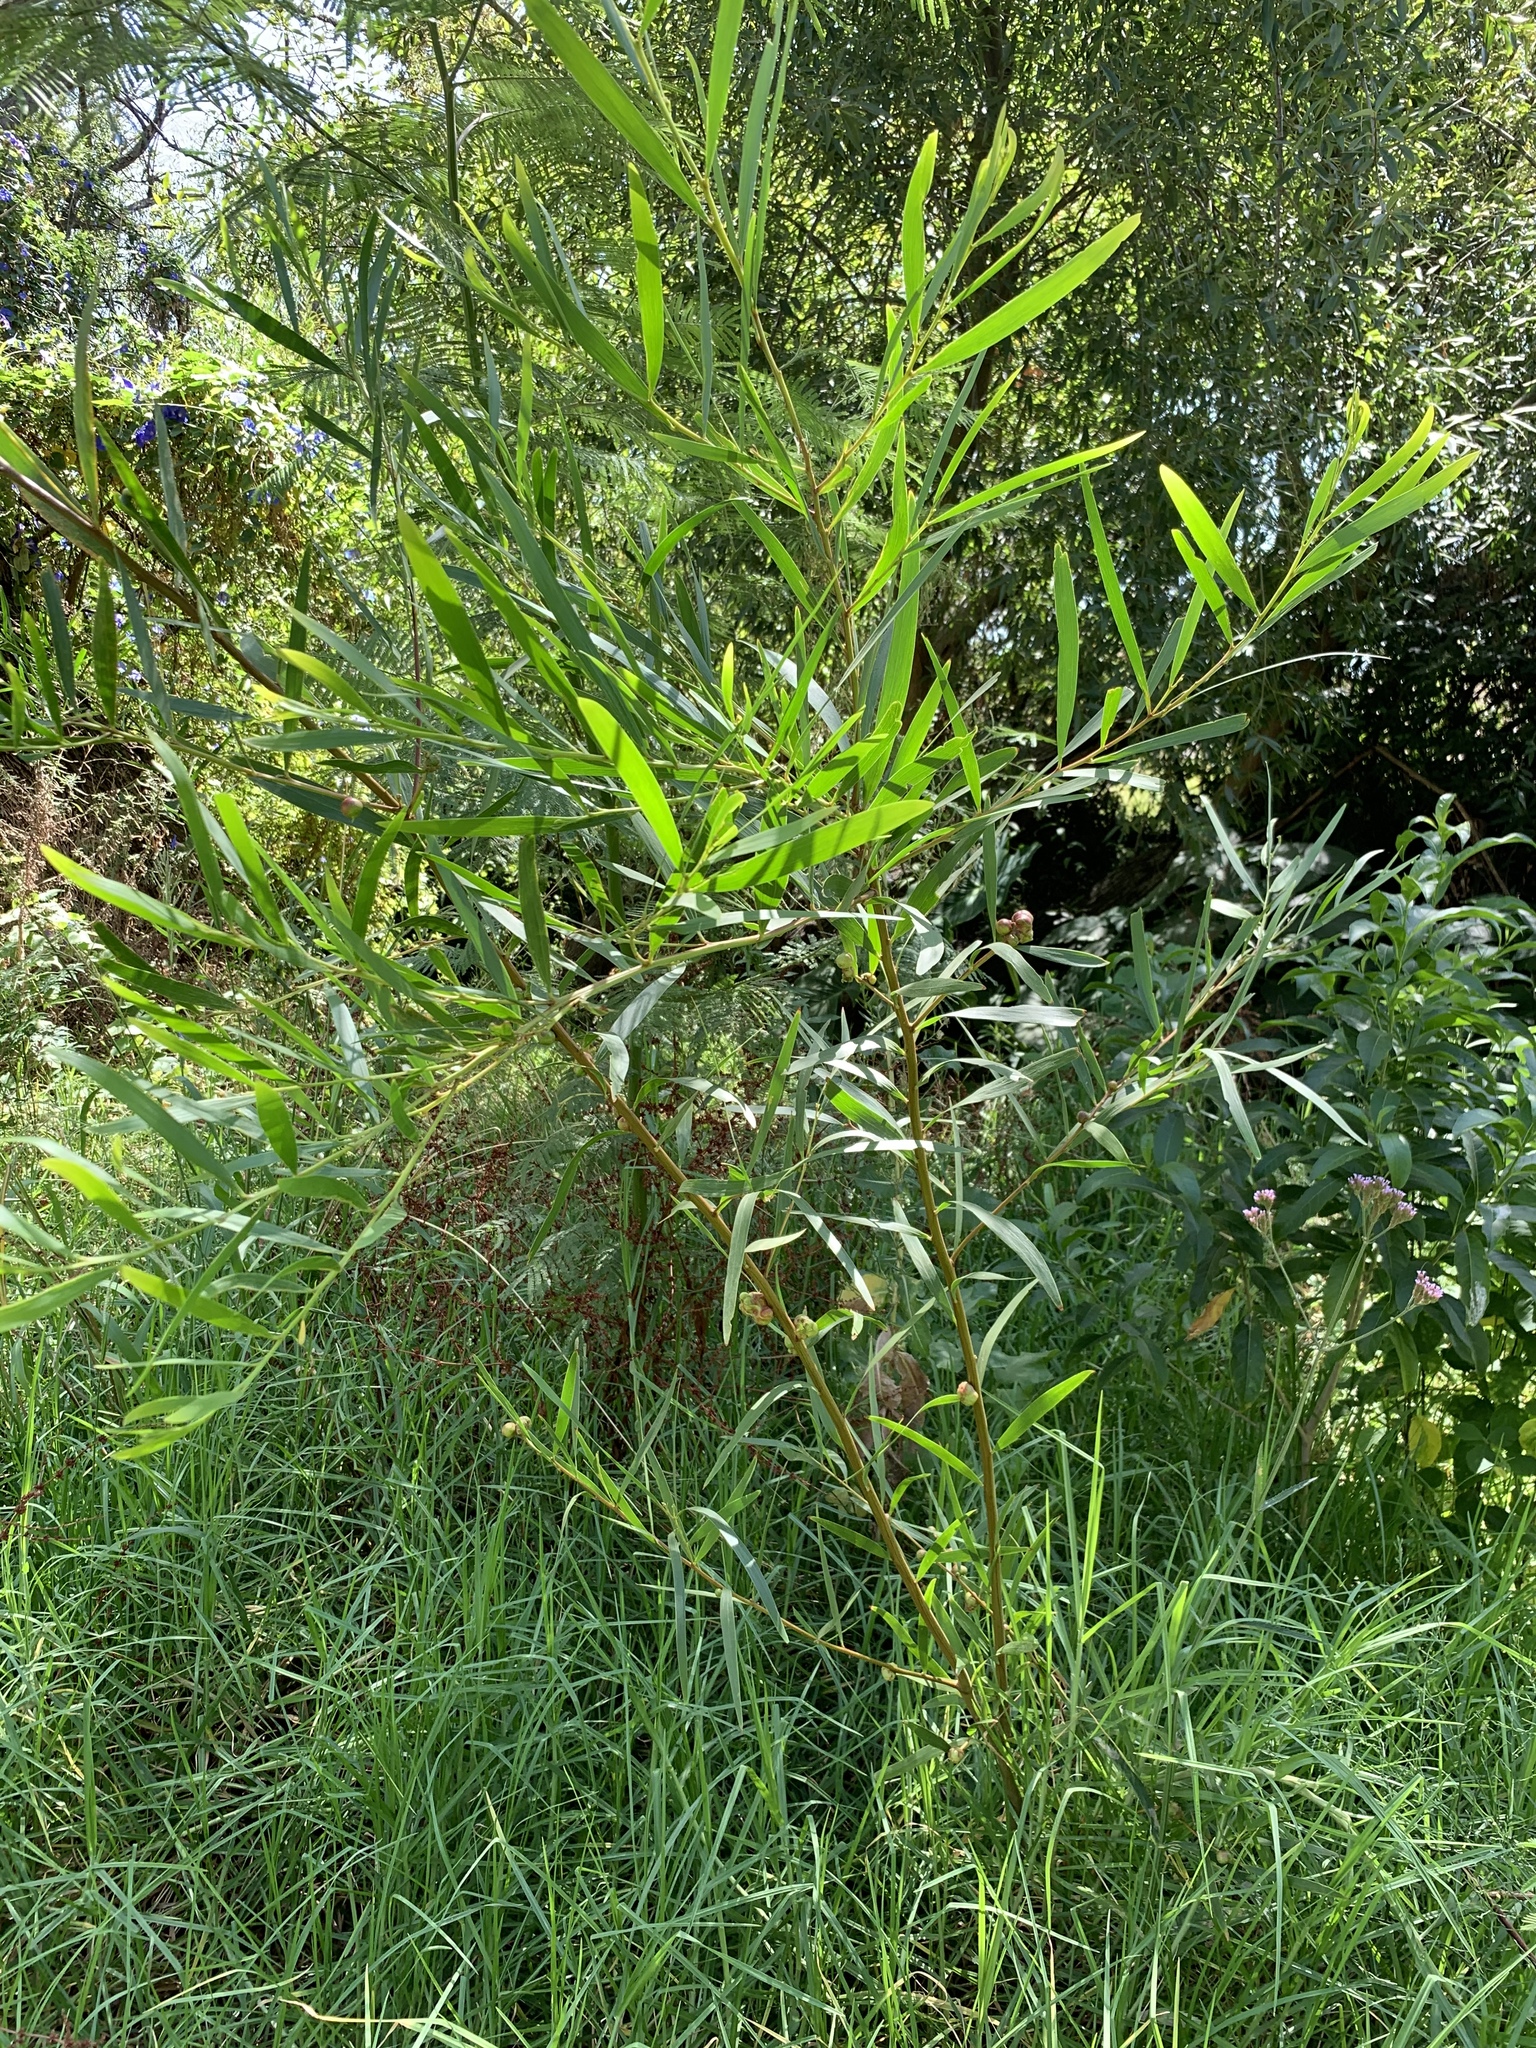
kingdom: Plantae
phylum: Tracheophyta
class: Magnoliopsida
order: Fabales
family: Fabaceae
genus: Acacia
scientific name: Acacia longifolia
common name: Sydney golden wattle
